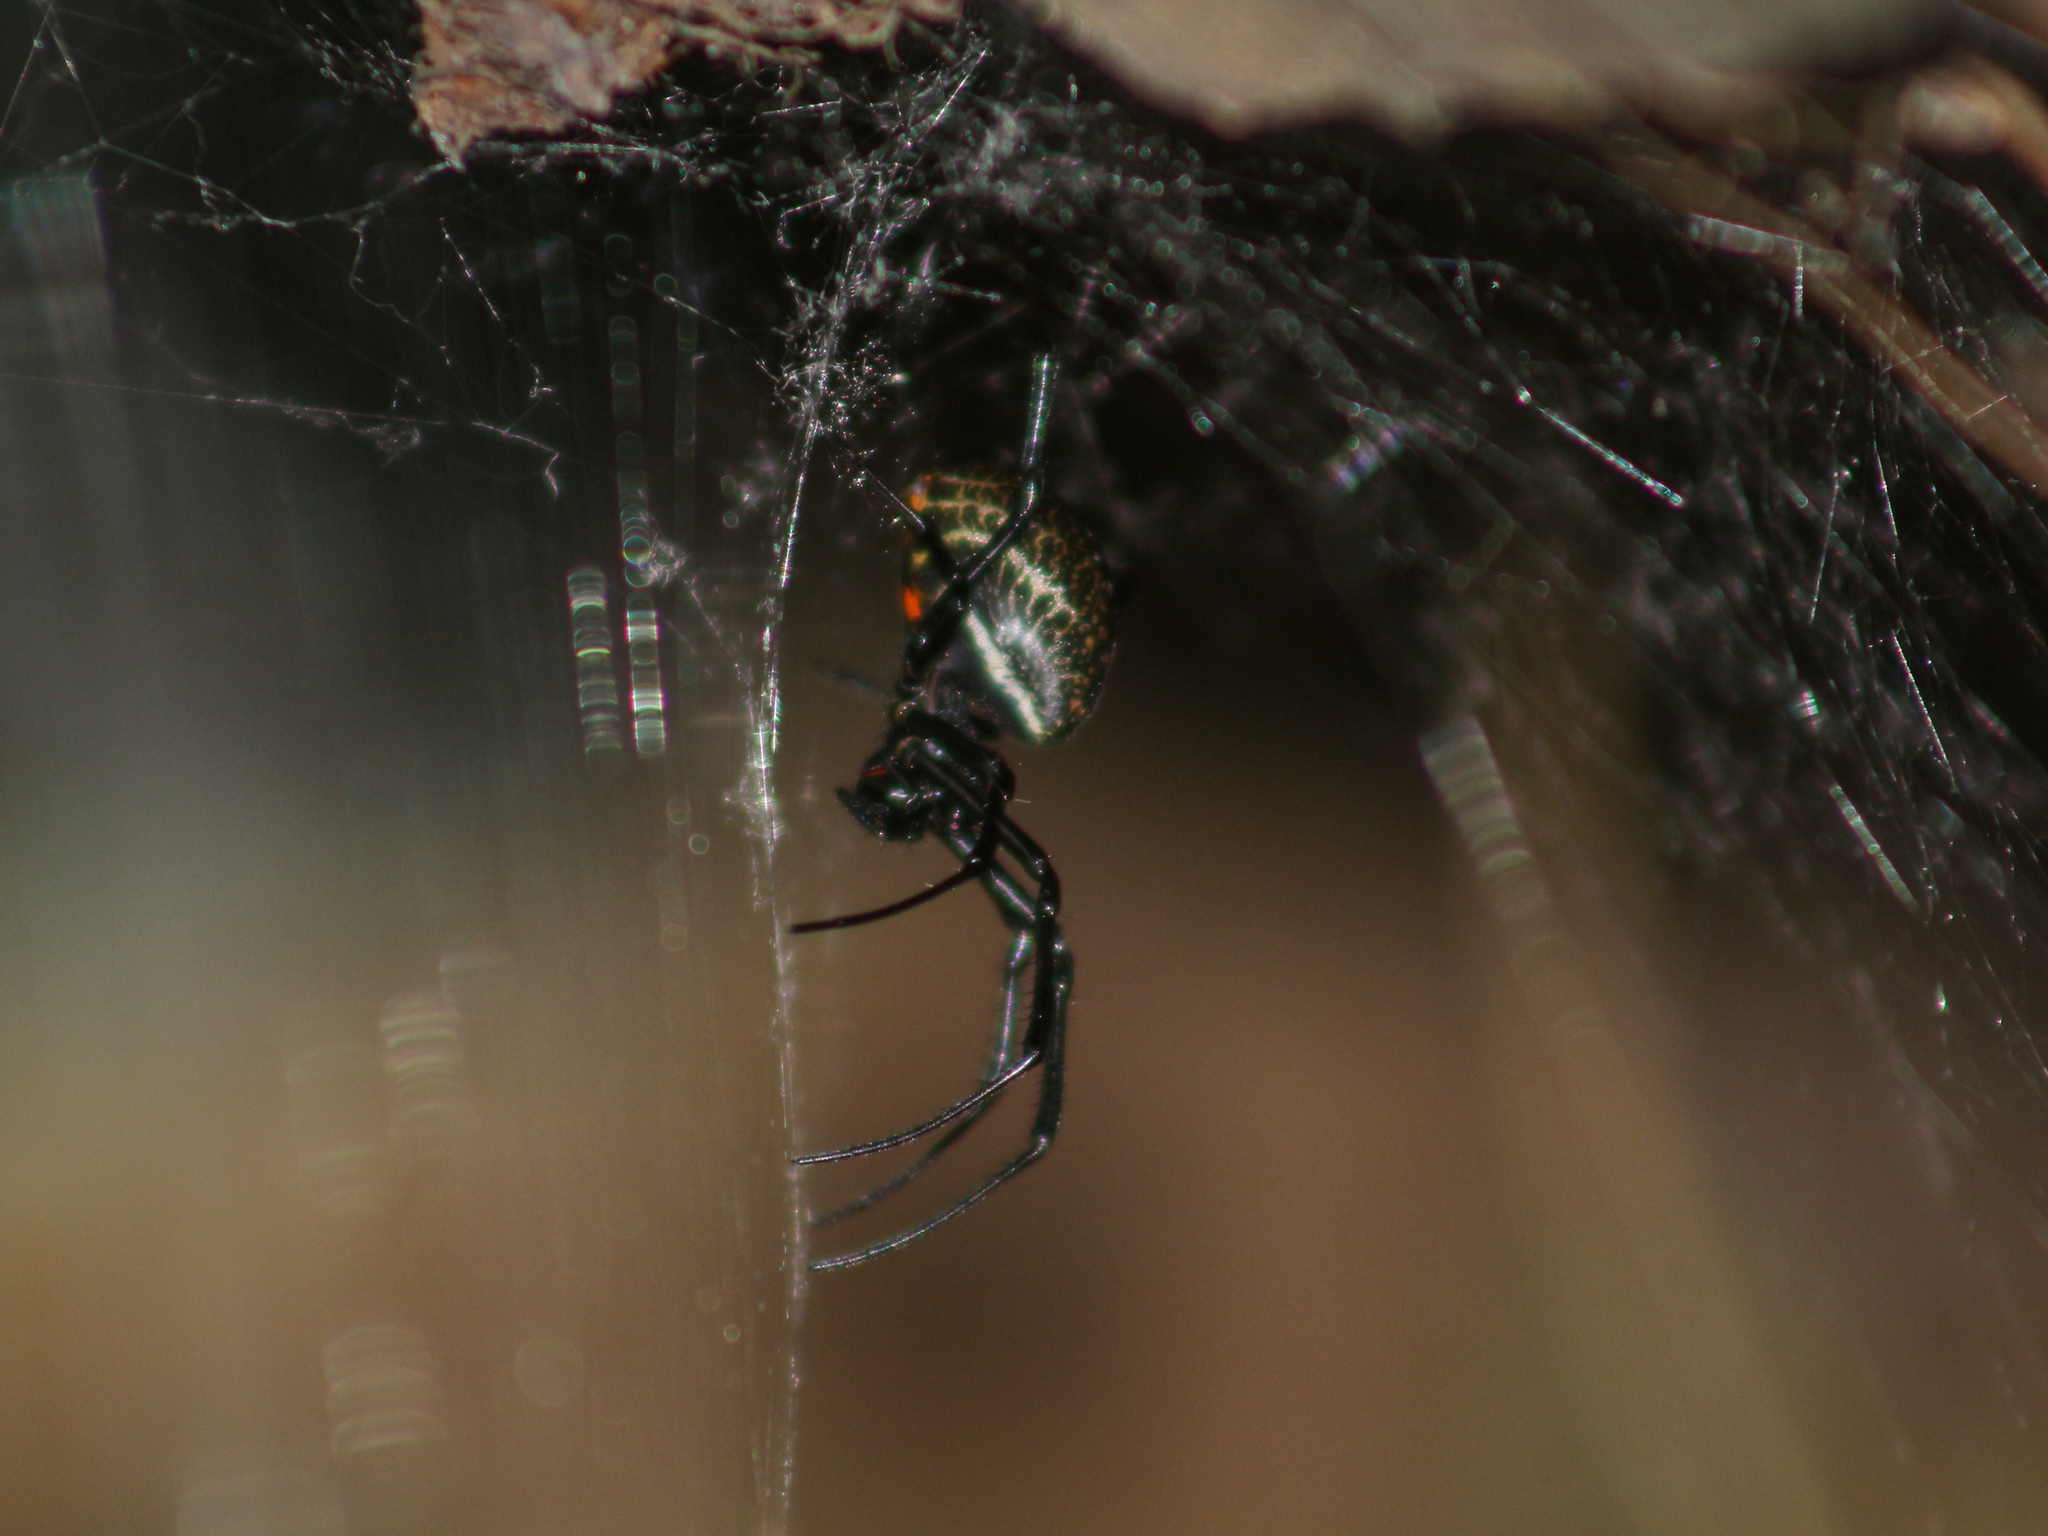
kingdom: Animalia
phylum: Arthropoda
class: Arachnida
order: Araneae
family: Araneidae
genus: Nephilengys
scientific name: Nephilengys malabarensis
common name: Asian hermit spider
